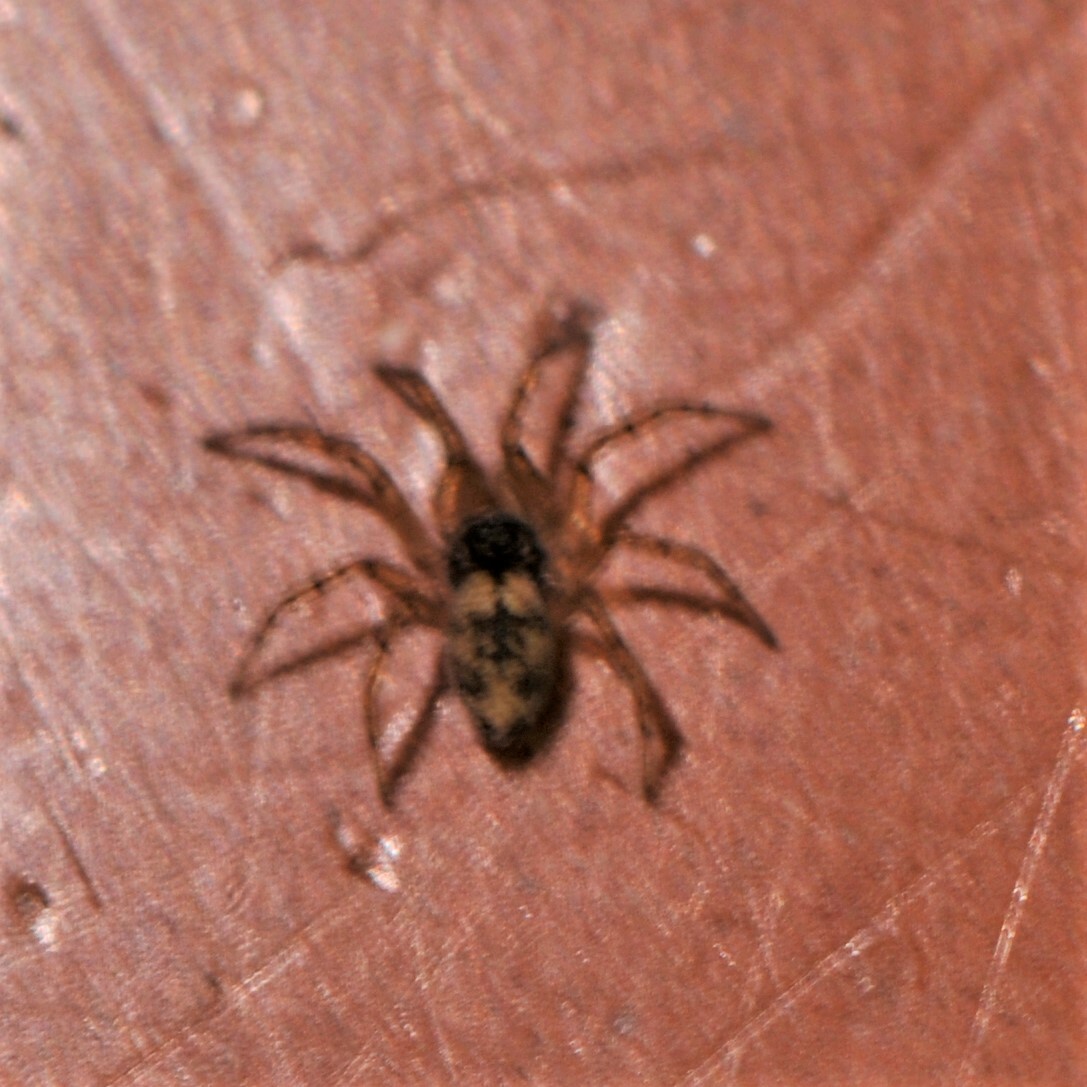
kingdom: Animalia
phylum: Arthropoda
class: Arachnida
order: Araneae
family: Oecobiidae
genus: Oecobius
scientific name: Oecobius
